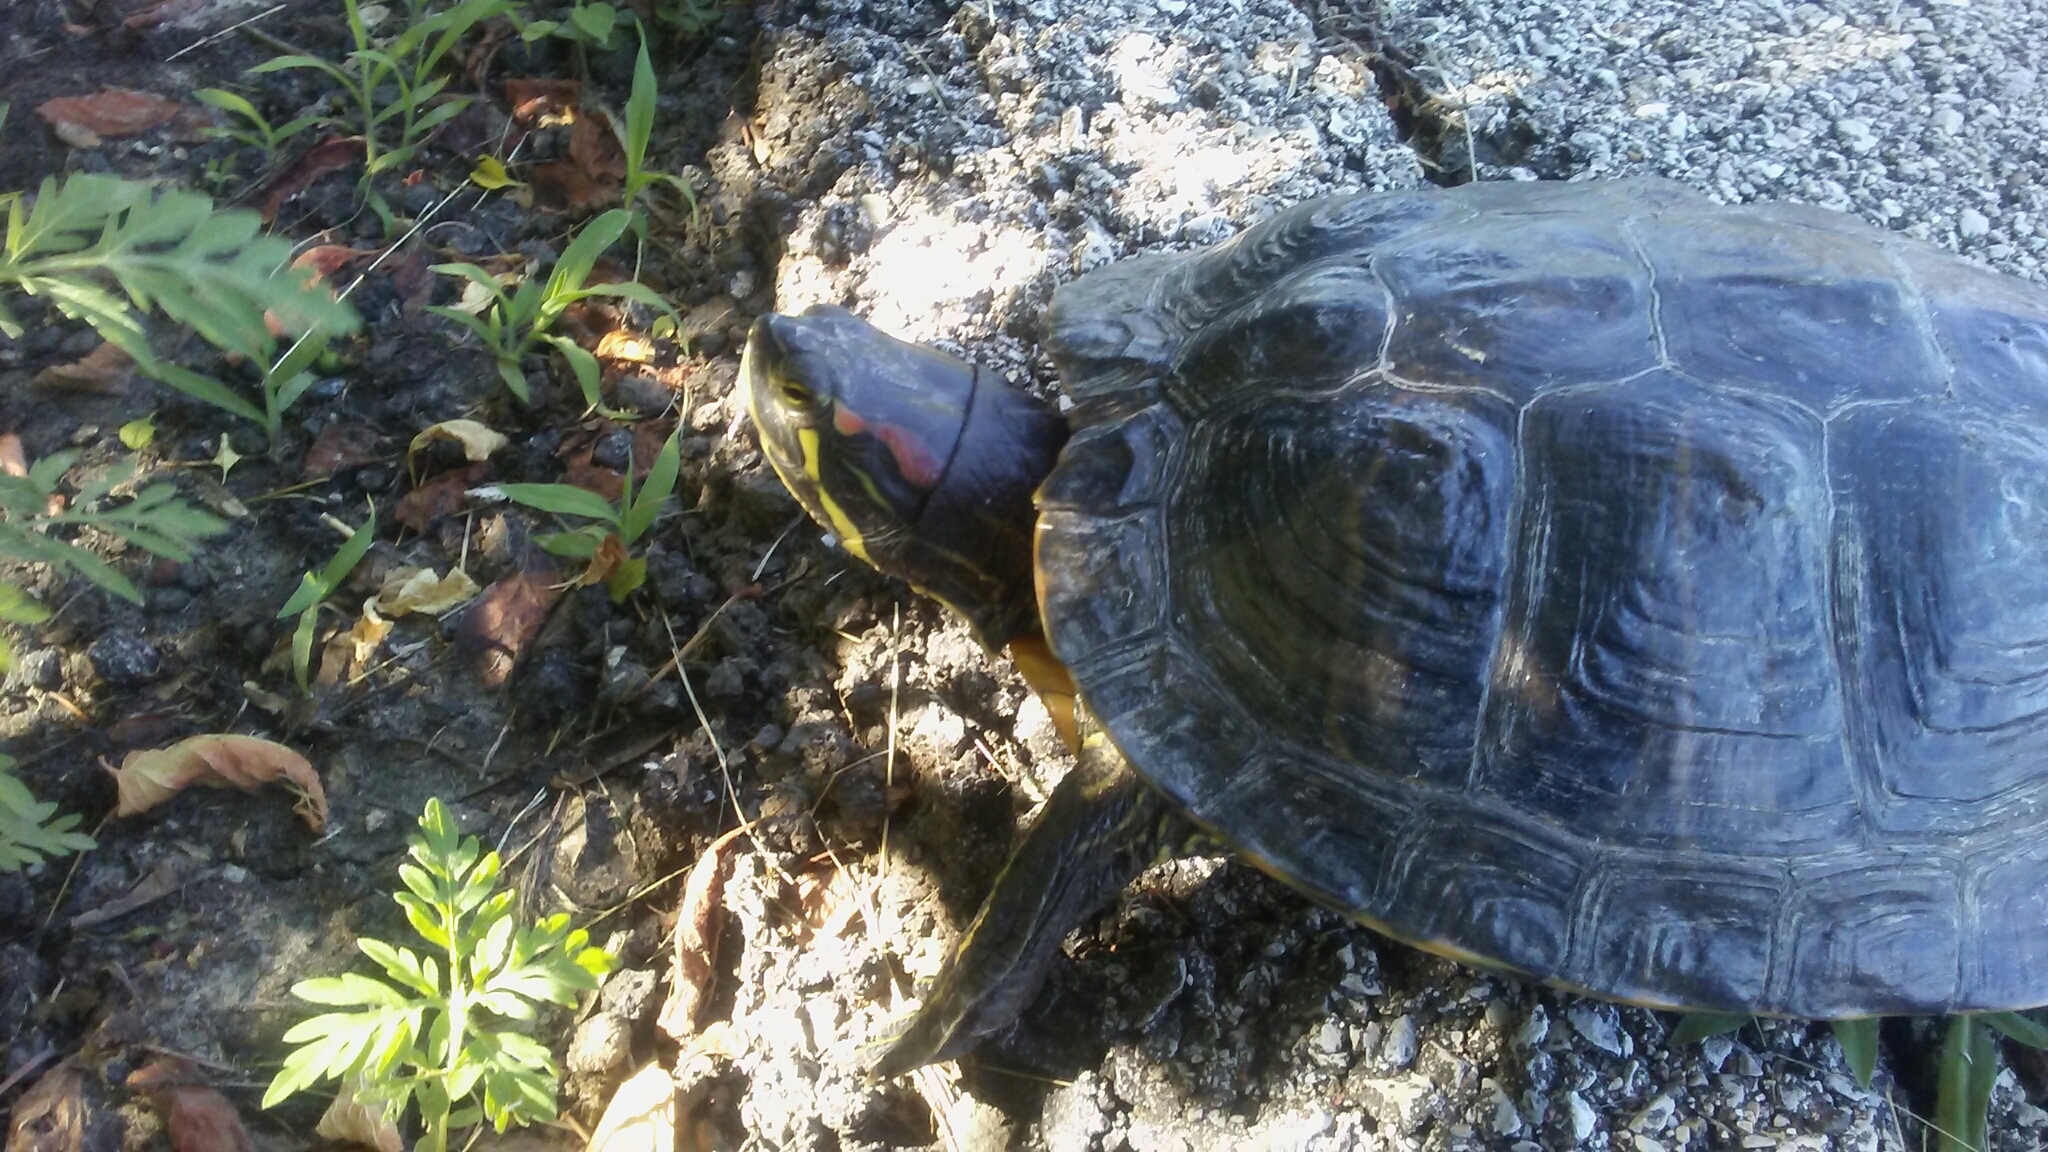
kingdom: Animalia
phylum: Chordata
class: Testudines
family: Emydidae
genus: Trachemys
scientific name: Trachemys scripta
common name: Slider
